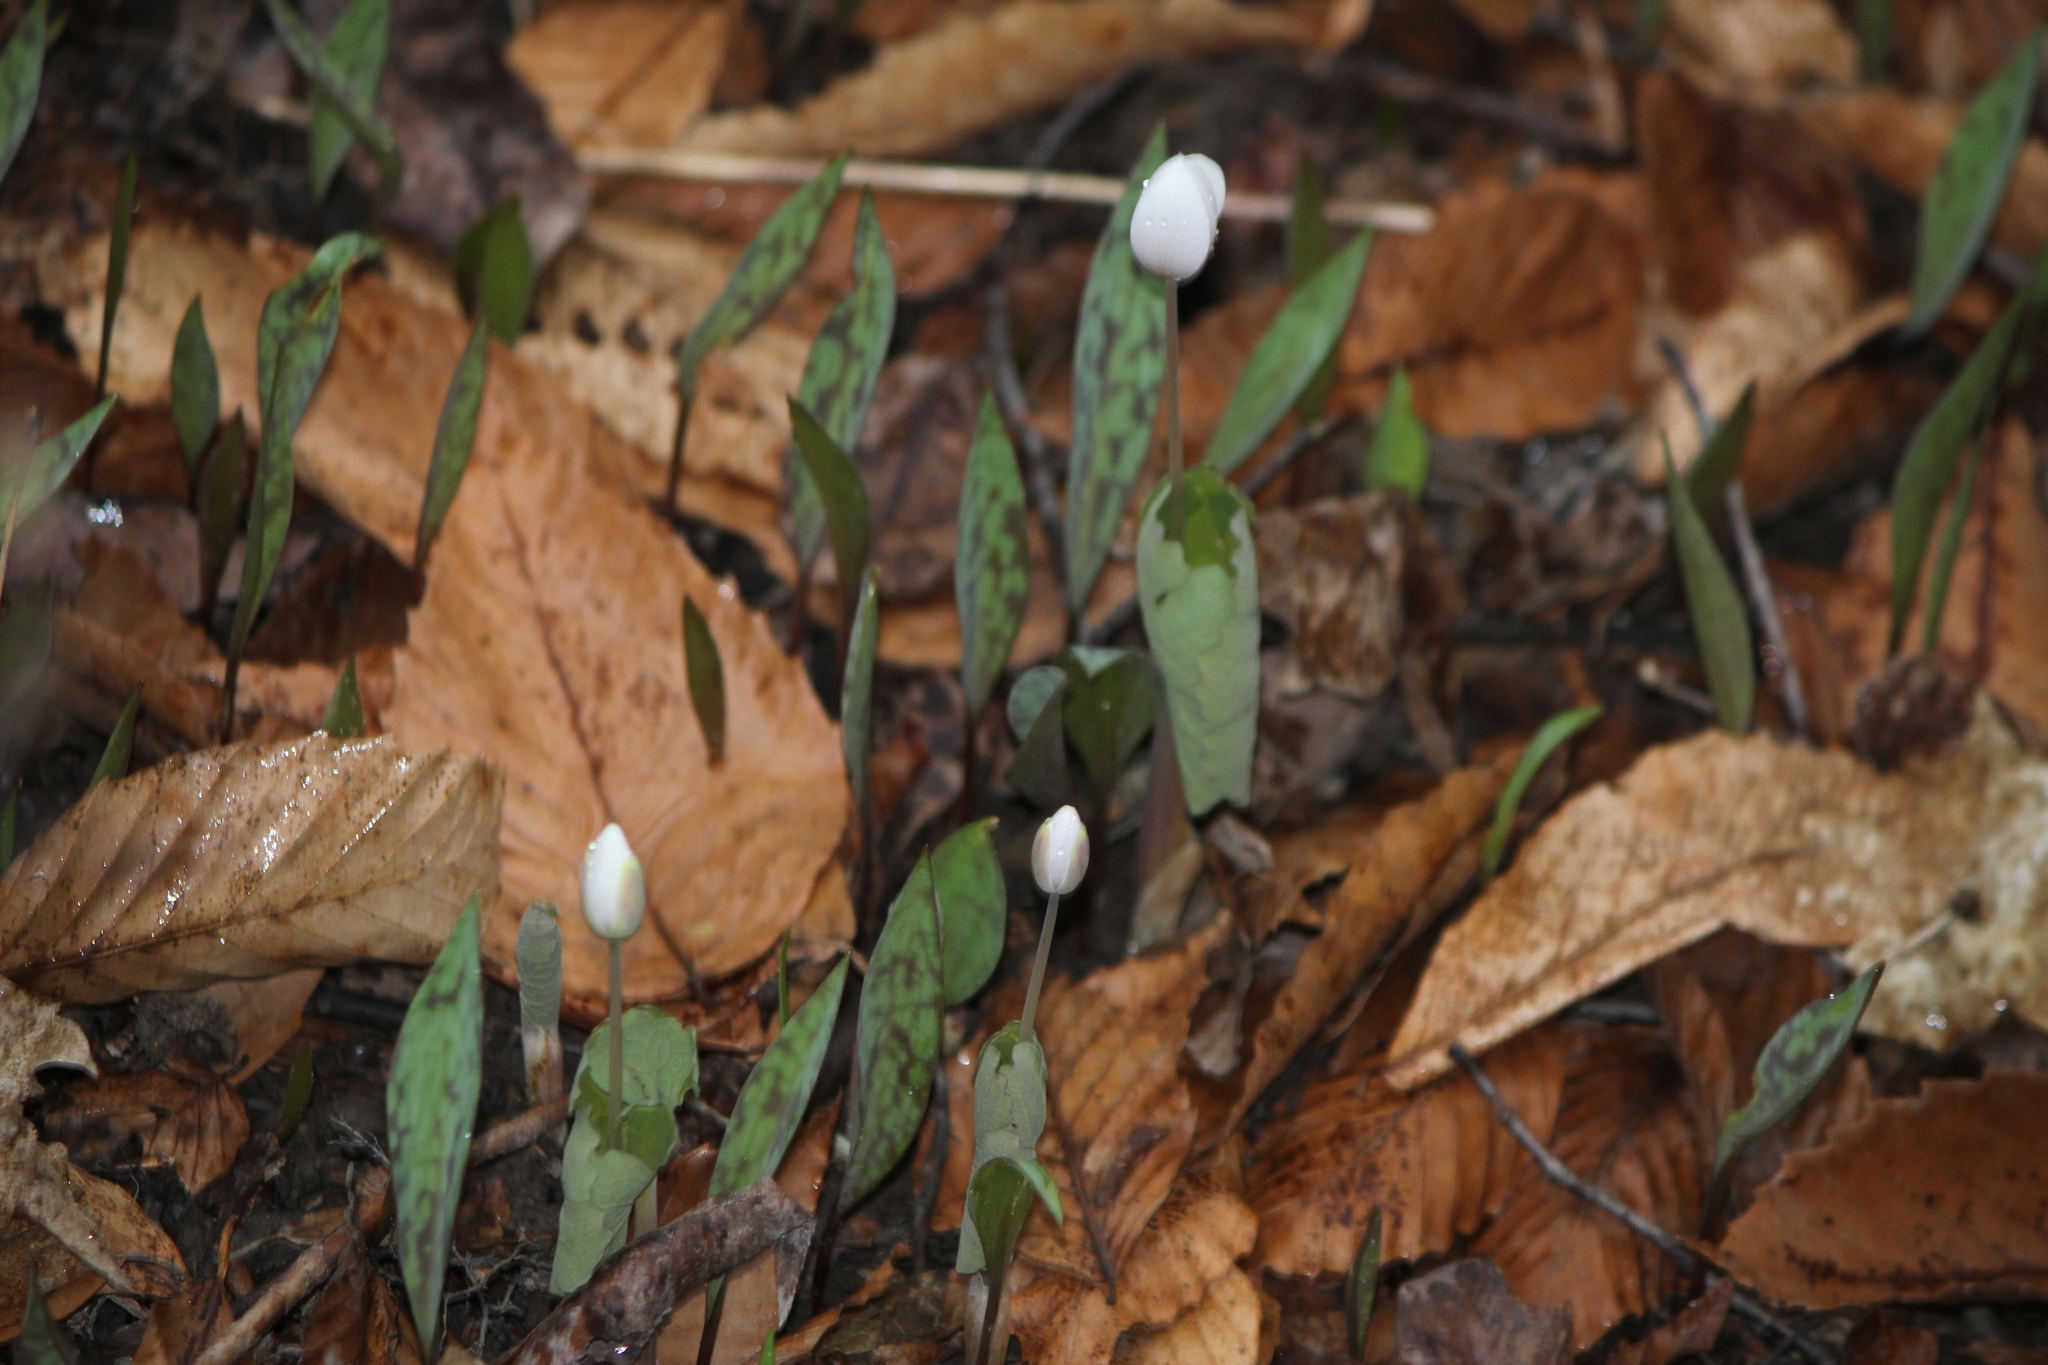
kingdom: Plantae
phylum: Tracheophyta
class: Magnoliopsida
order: Ranunculales
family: Papaveraceae
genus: Sanguinaria
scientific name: Sanguinaria canadensis
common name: Bloodroot
